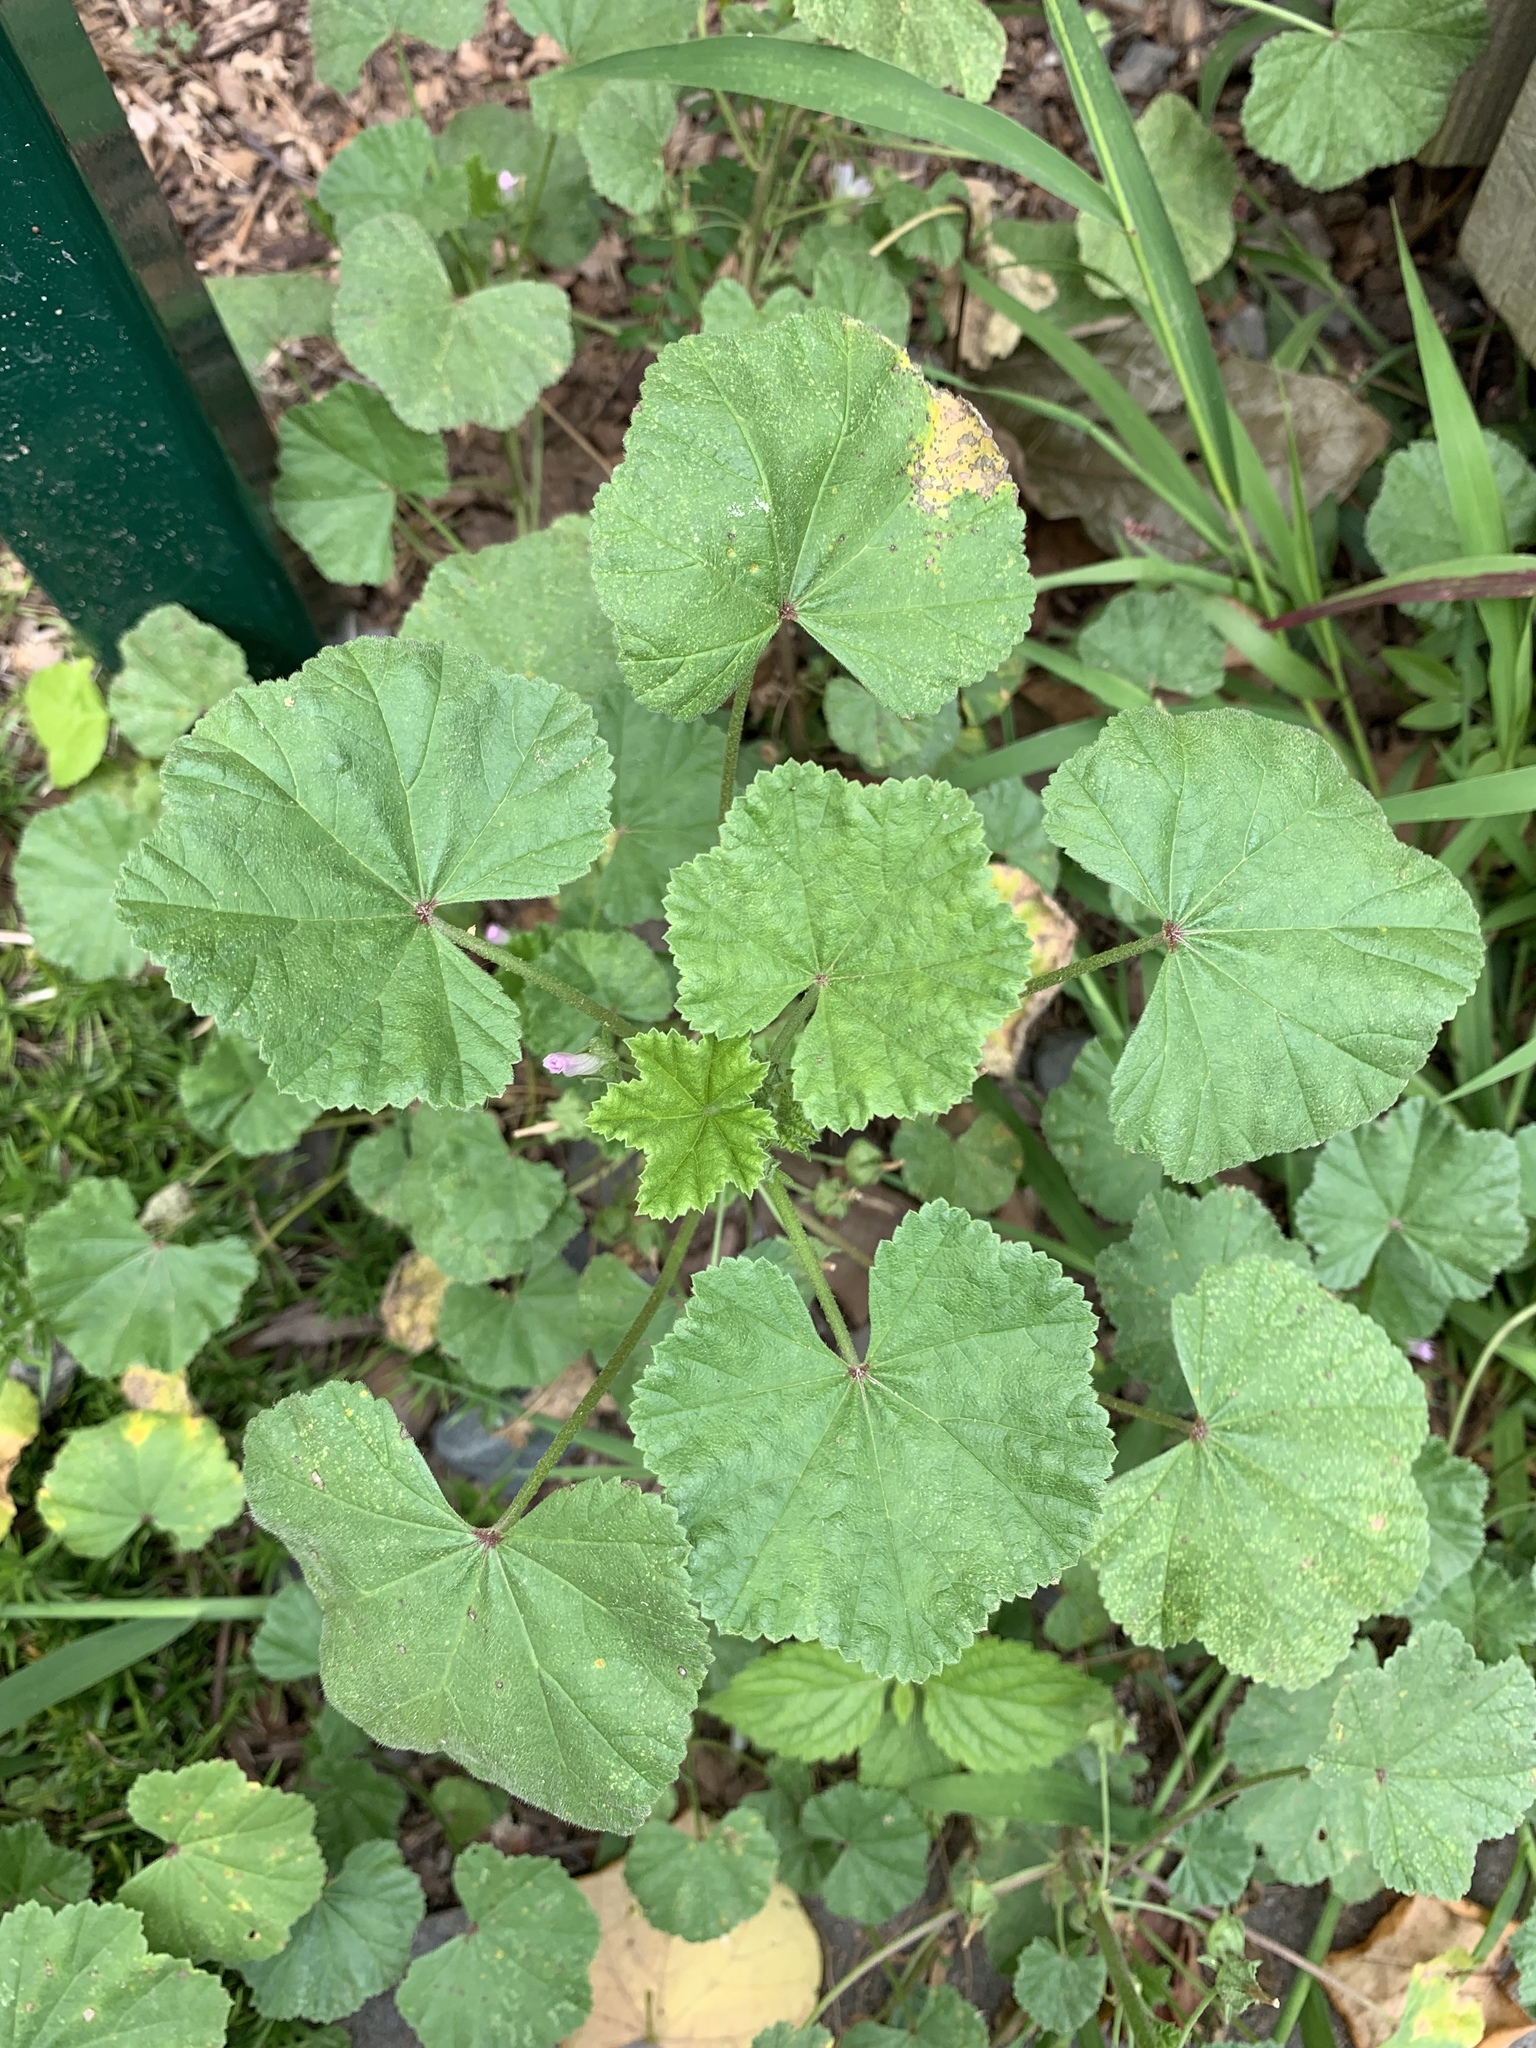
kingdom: Plantae
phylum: Tracheophyta
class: Magnoliopsida
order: Malvales
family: Malvaceae
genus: Malva
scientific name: Malva neglecta
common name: Common mallow
